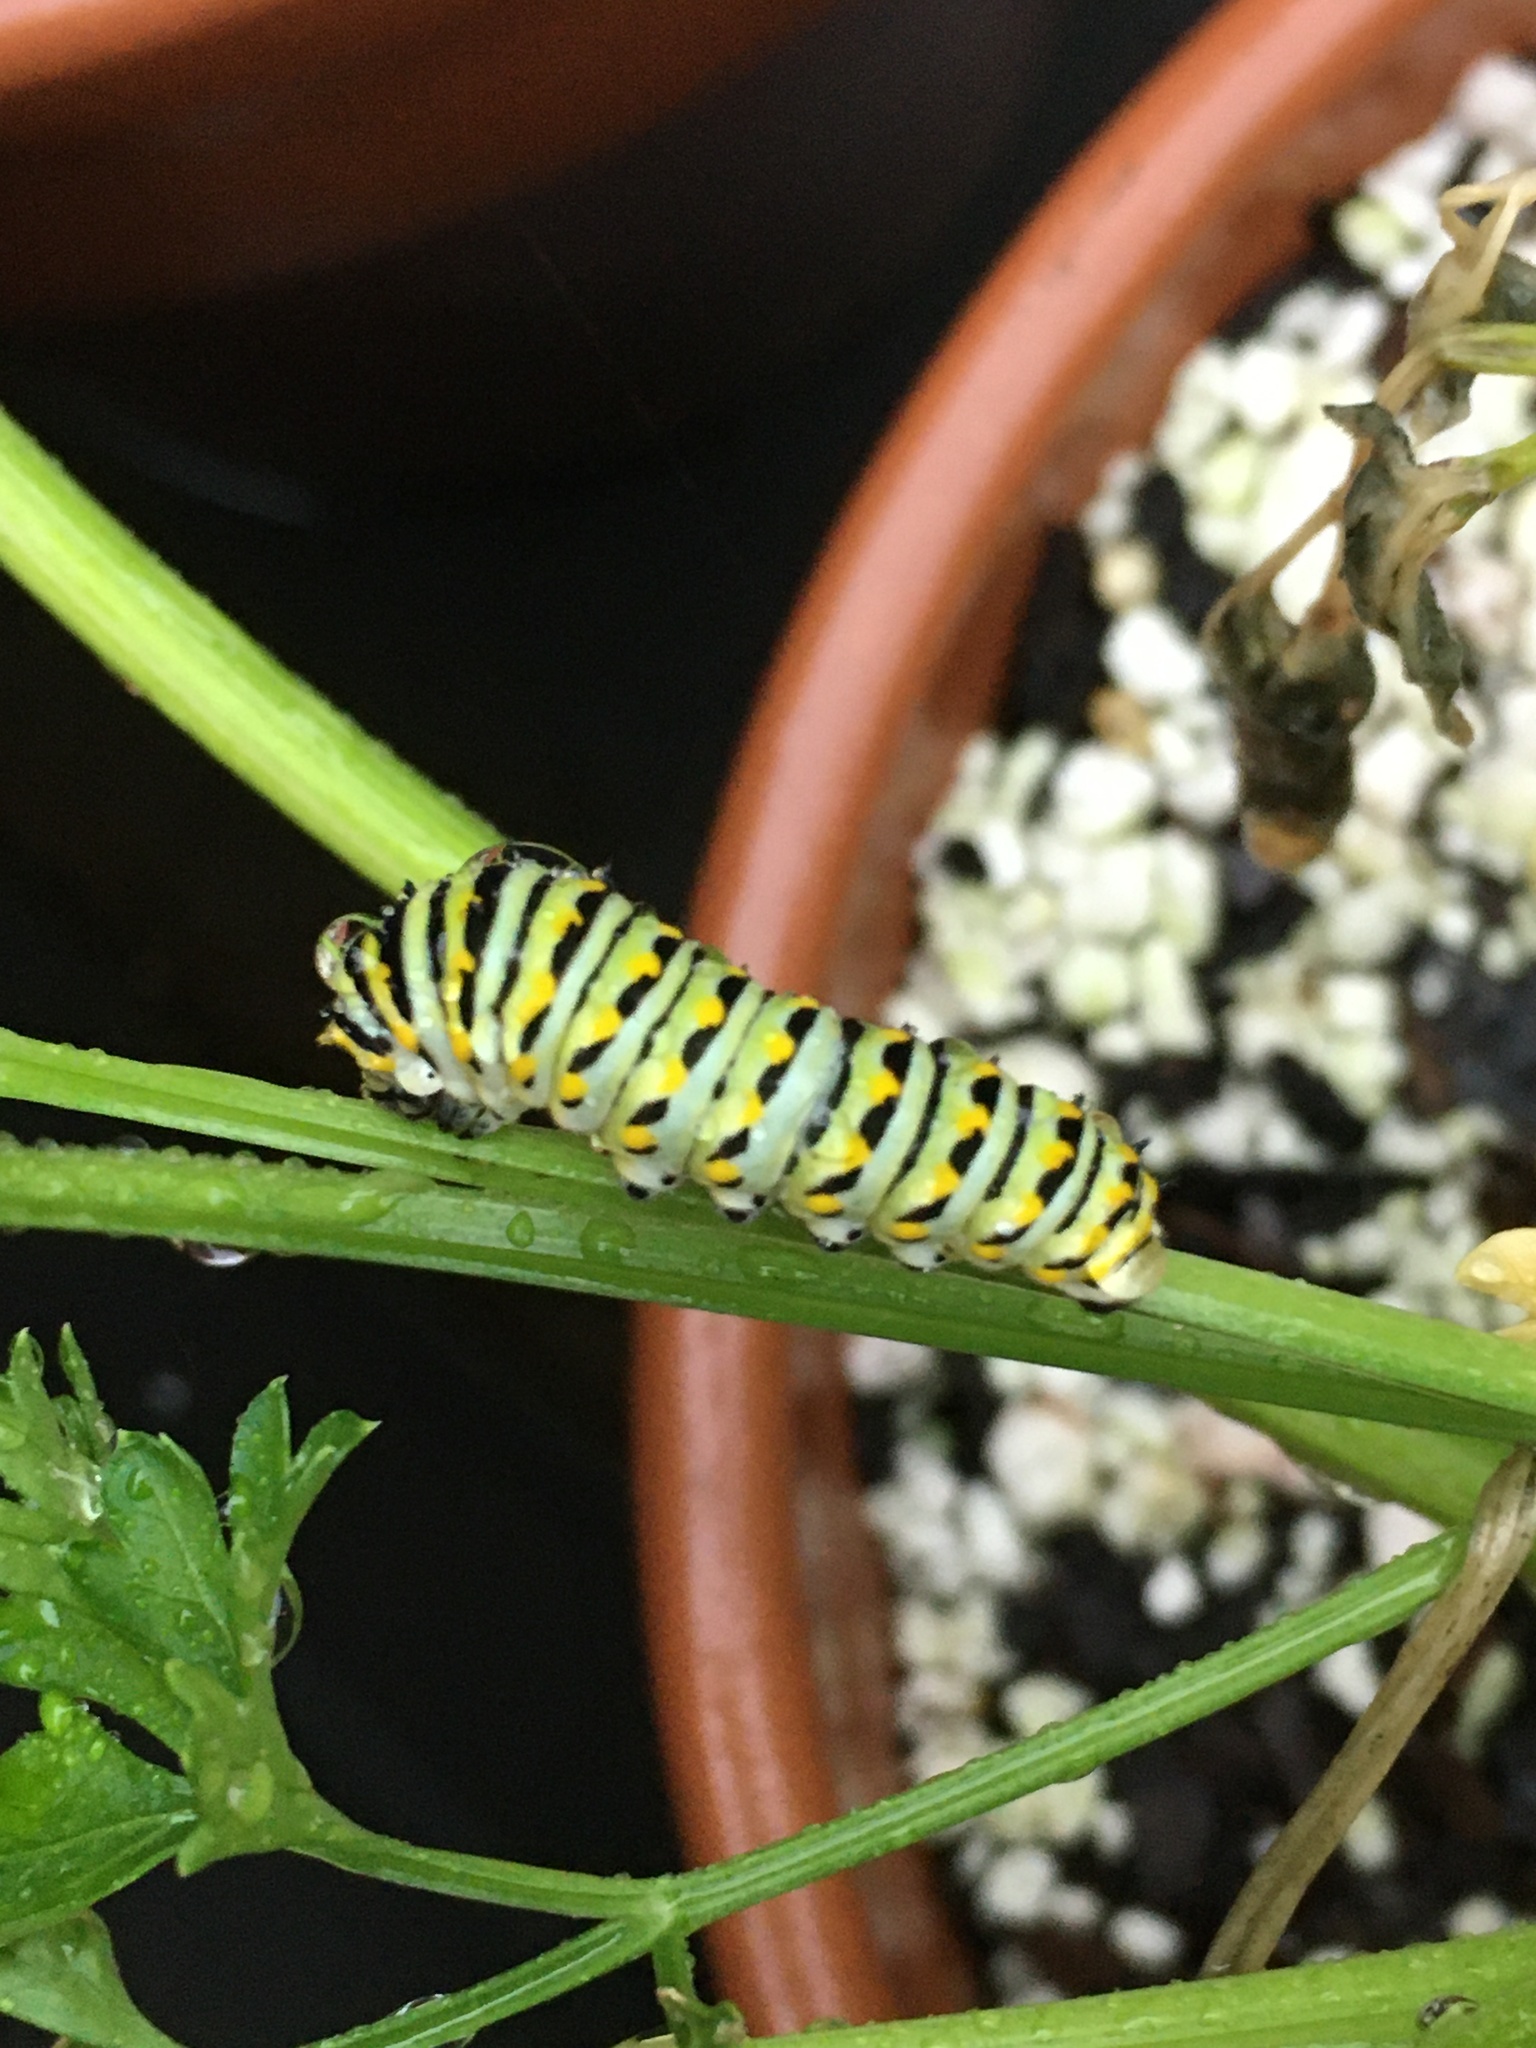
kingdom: Animalia
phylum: Arthropoda
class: Insecta
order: Lepidoptera
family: Papilionidae
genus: Papilio
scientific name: Papilio polyxenes
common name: Black swallowtail
